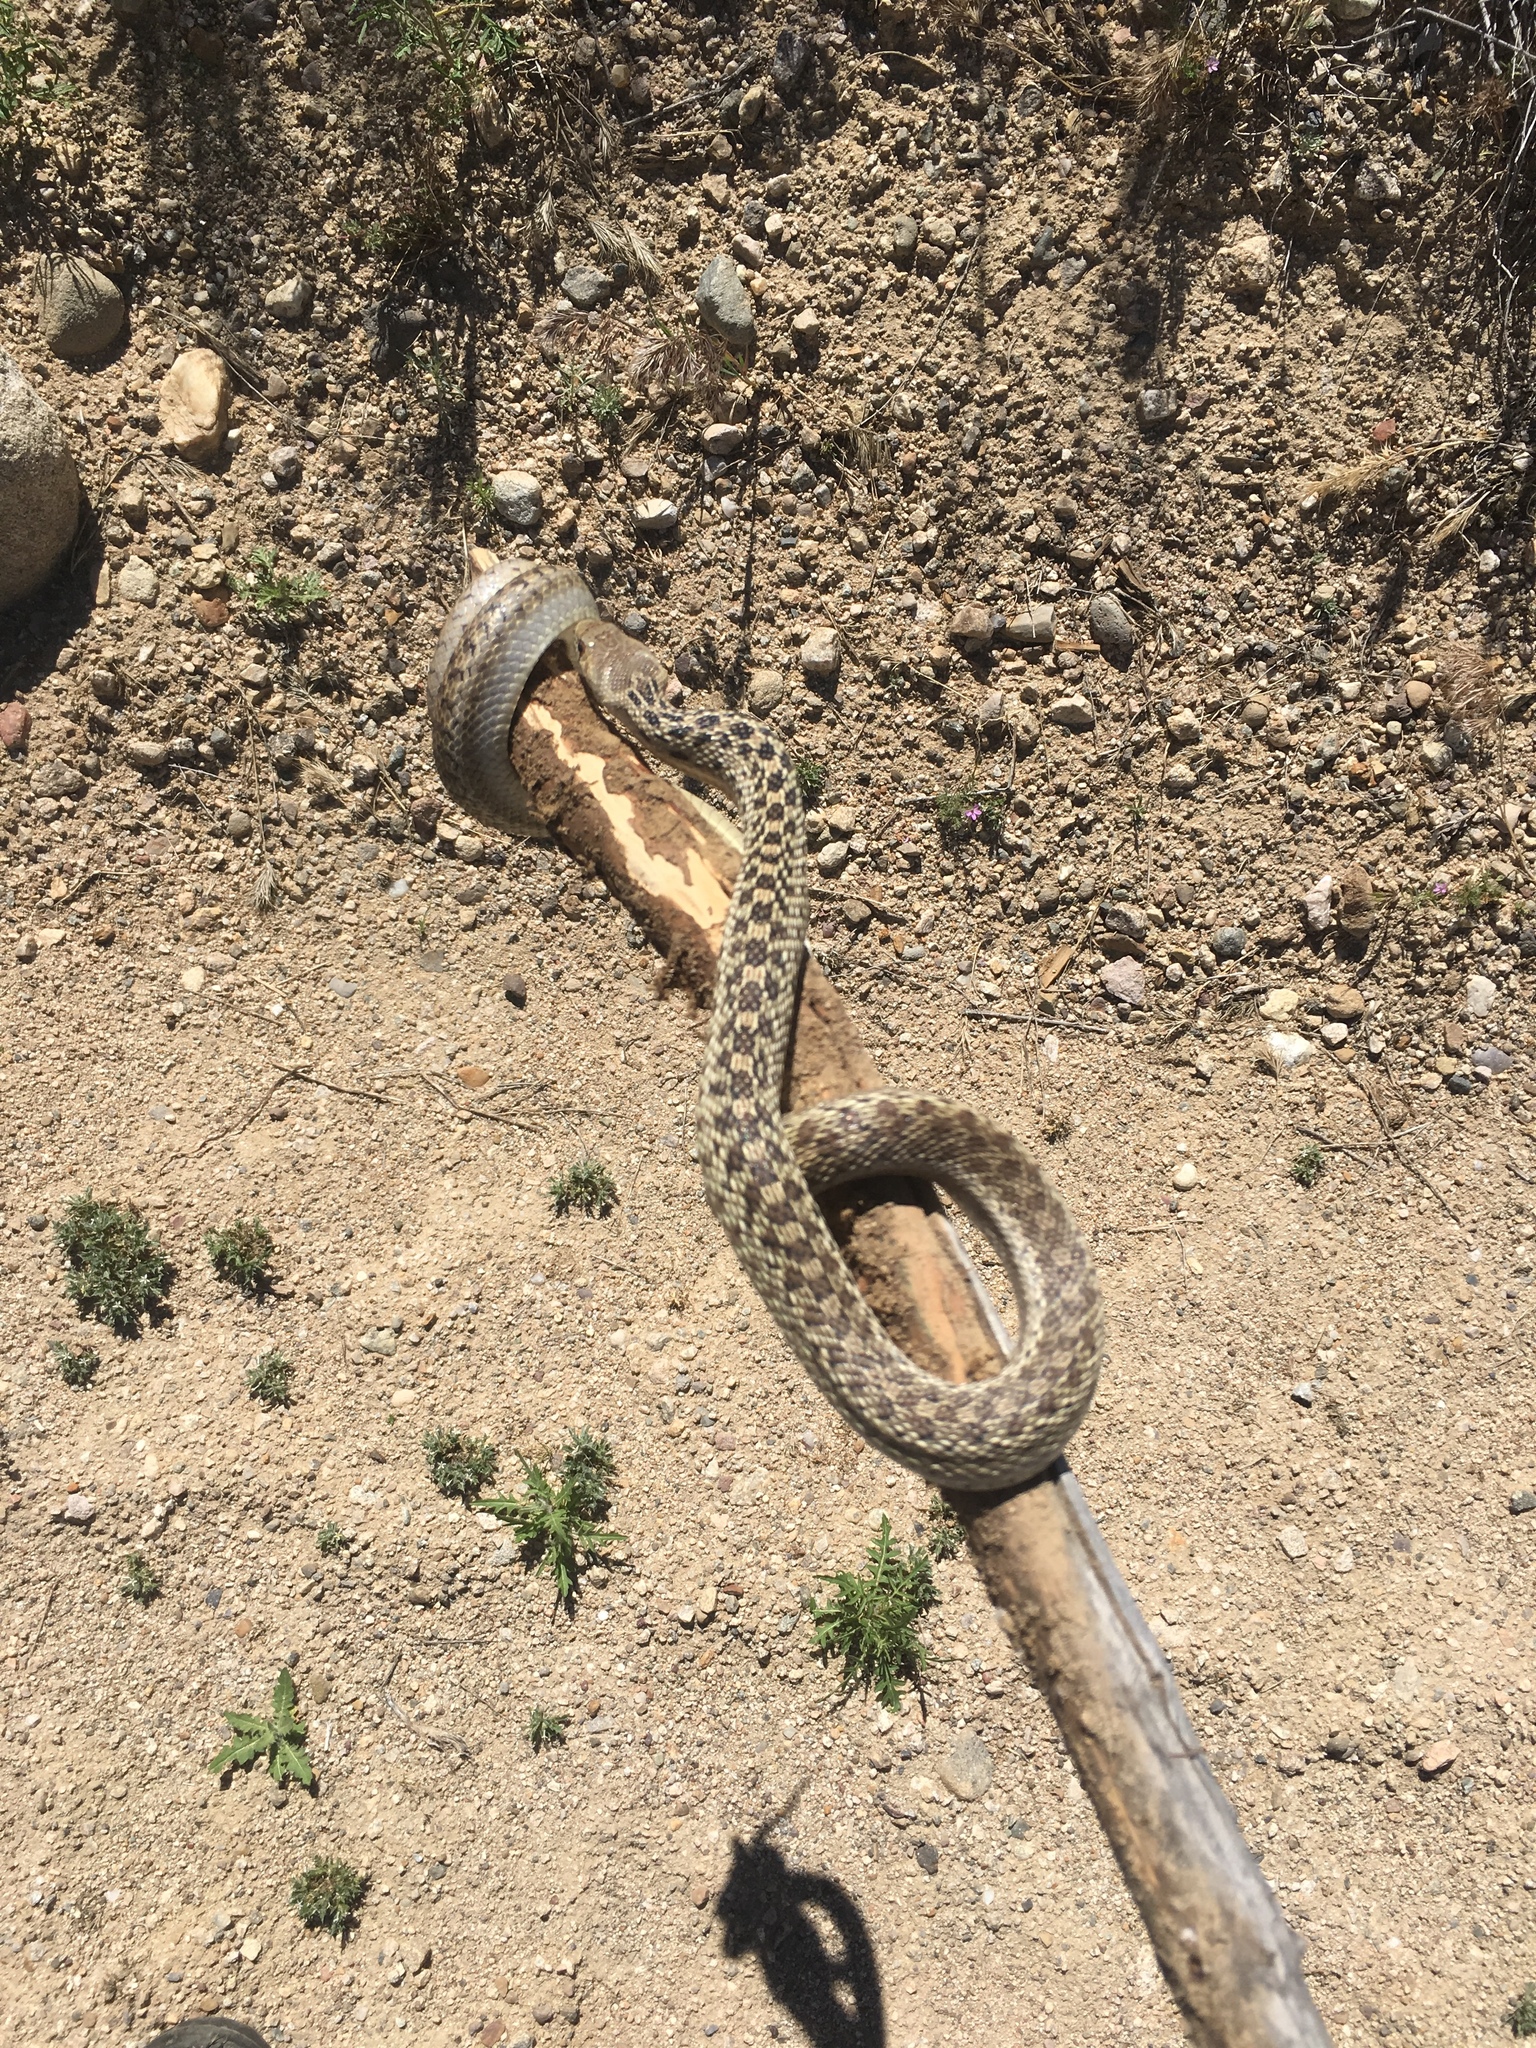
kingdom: Animalia
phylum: Chordata
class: Squamata
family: Colubridae
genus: Pituophis
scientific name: Pituophis catenifer
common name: Gopher snake
